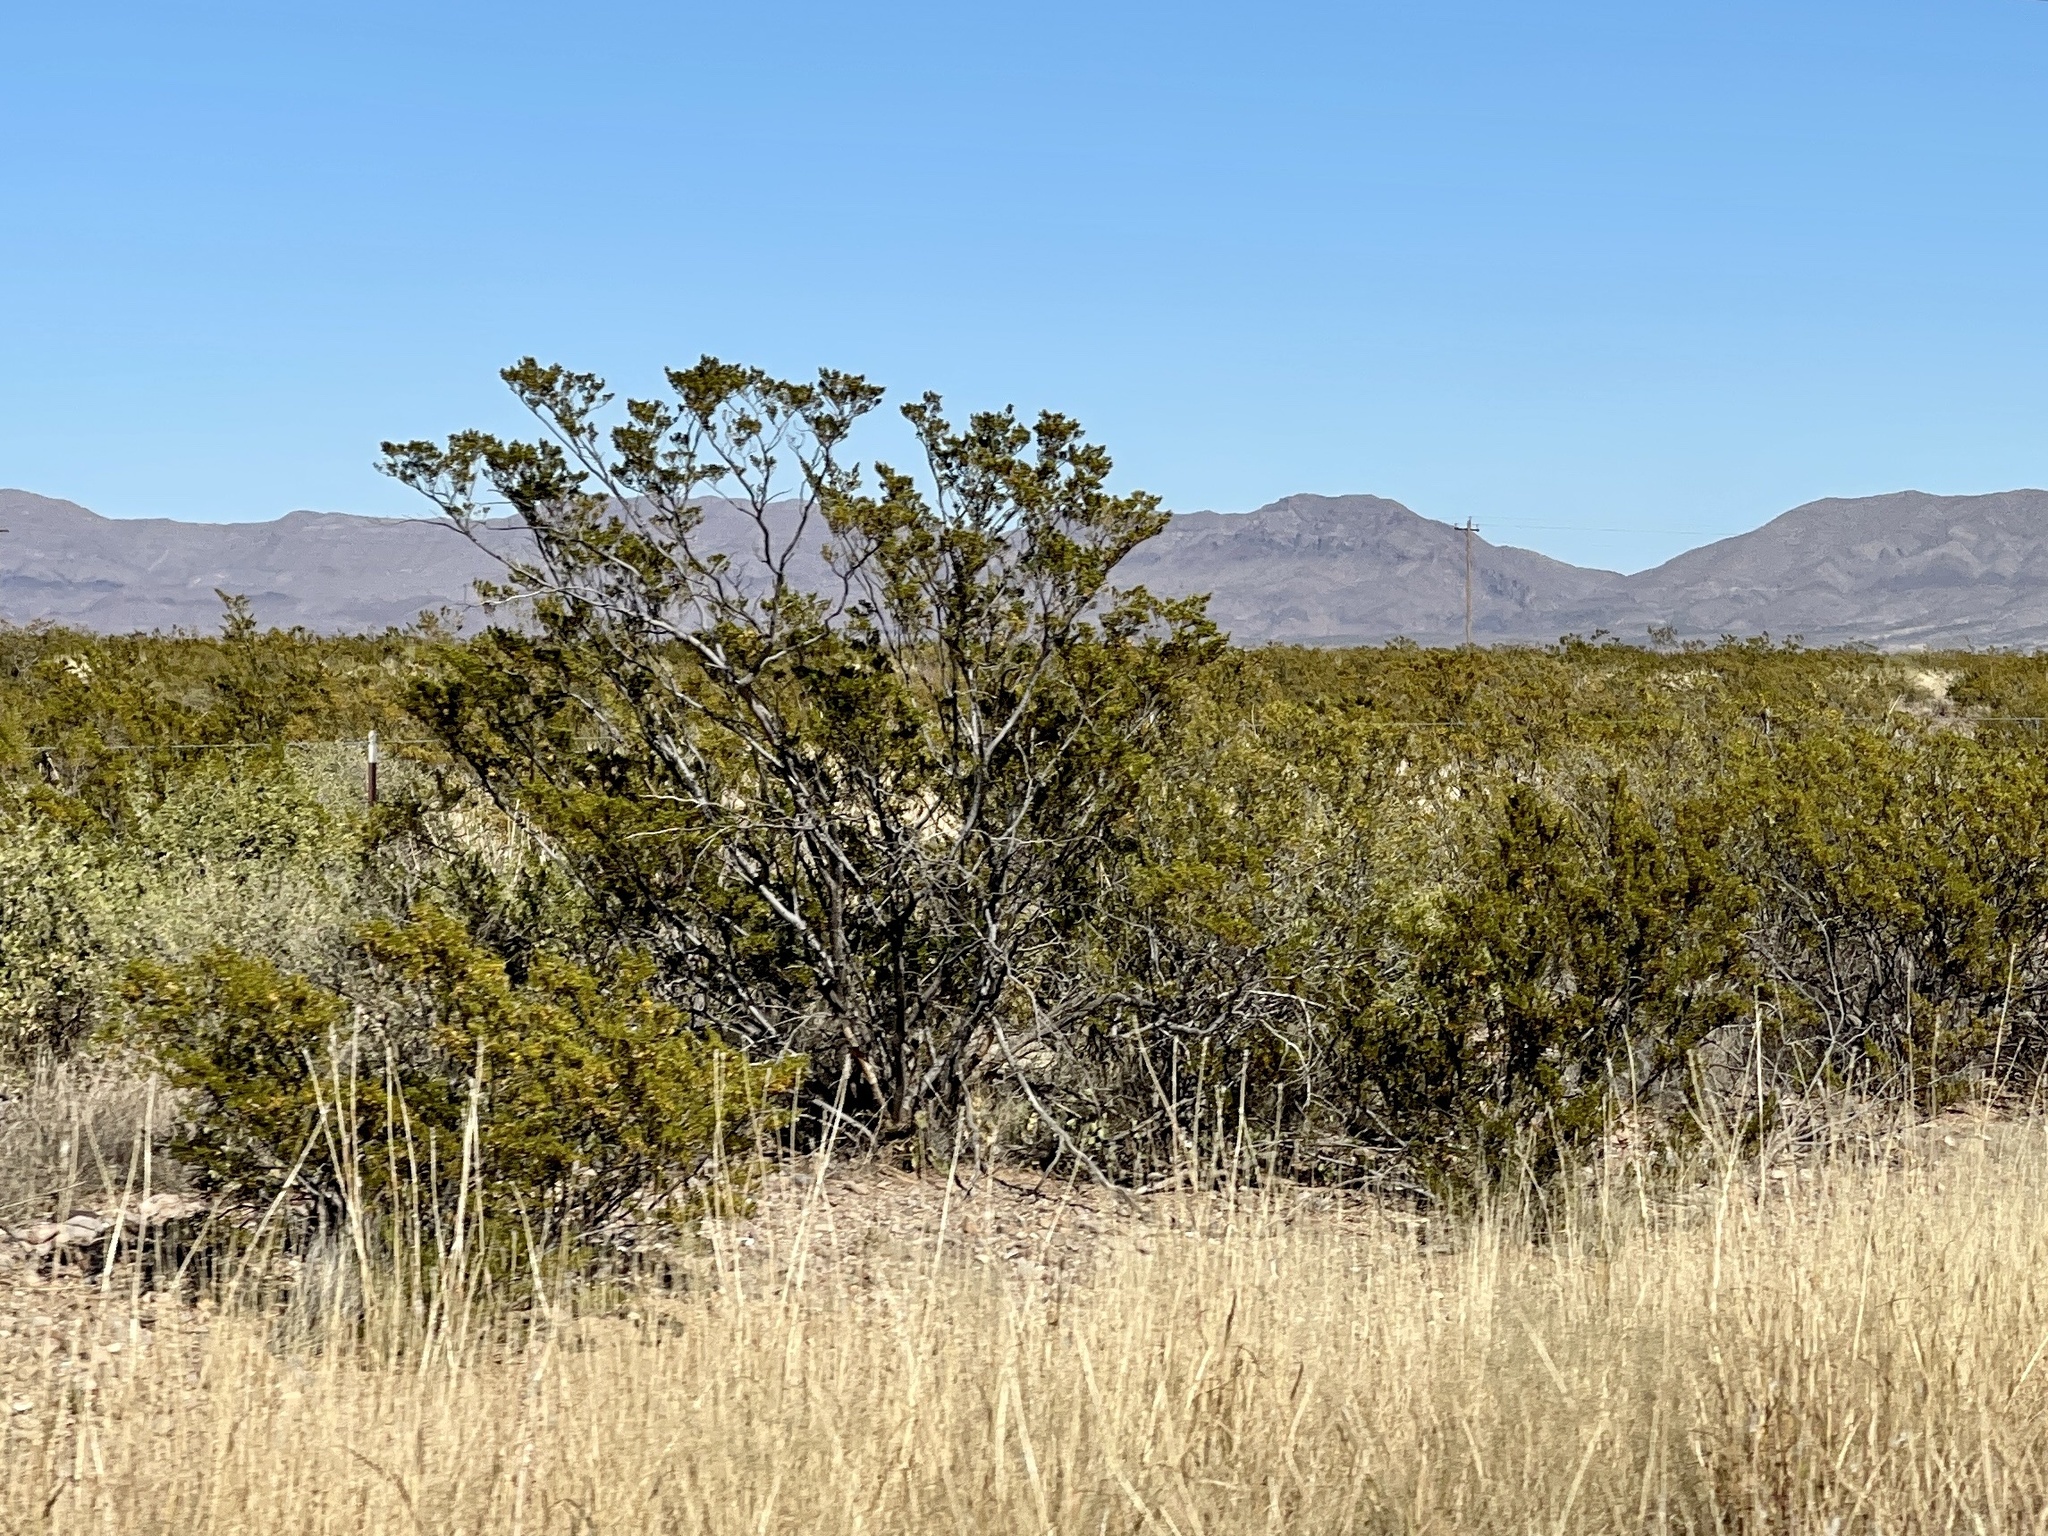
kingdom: Plantae
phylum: Tracheophyta
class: Magnoliopsida
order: Zygophyllales
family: Zygophyllaceae
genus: Larrea
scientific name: Larrea tridentata
